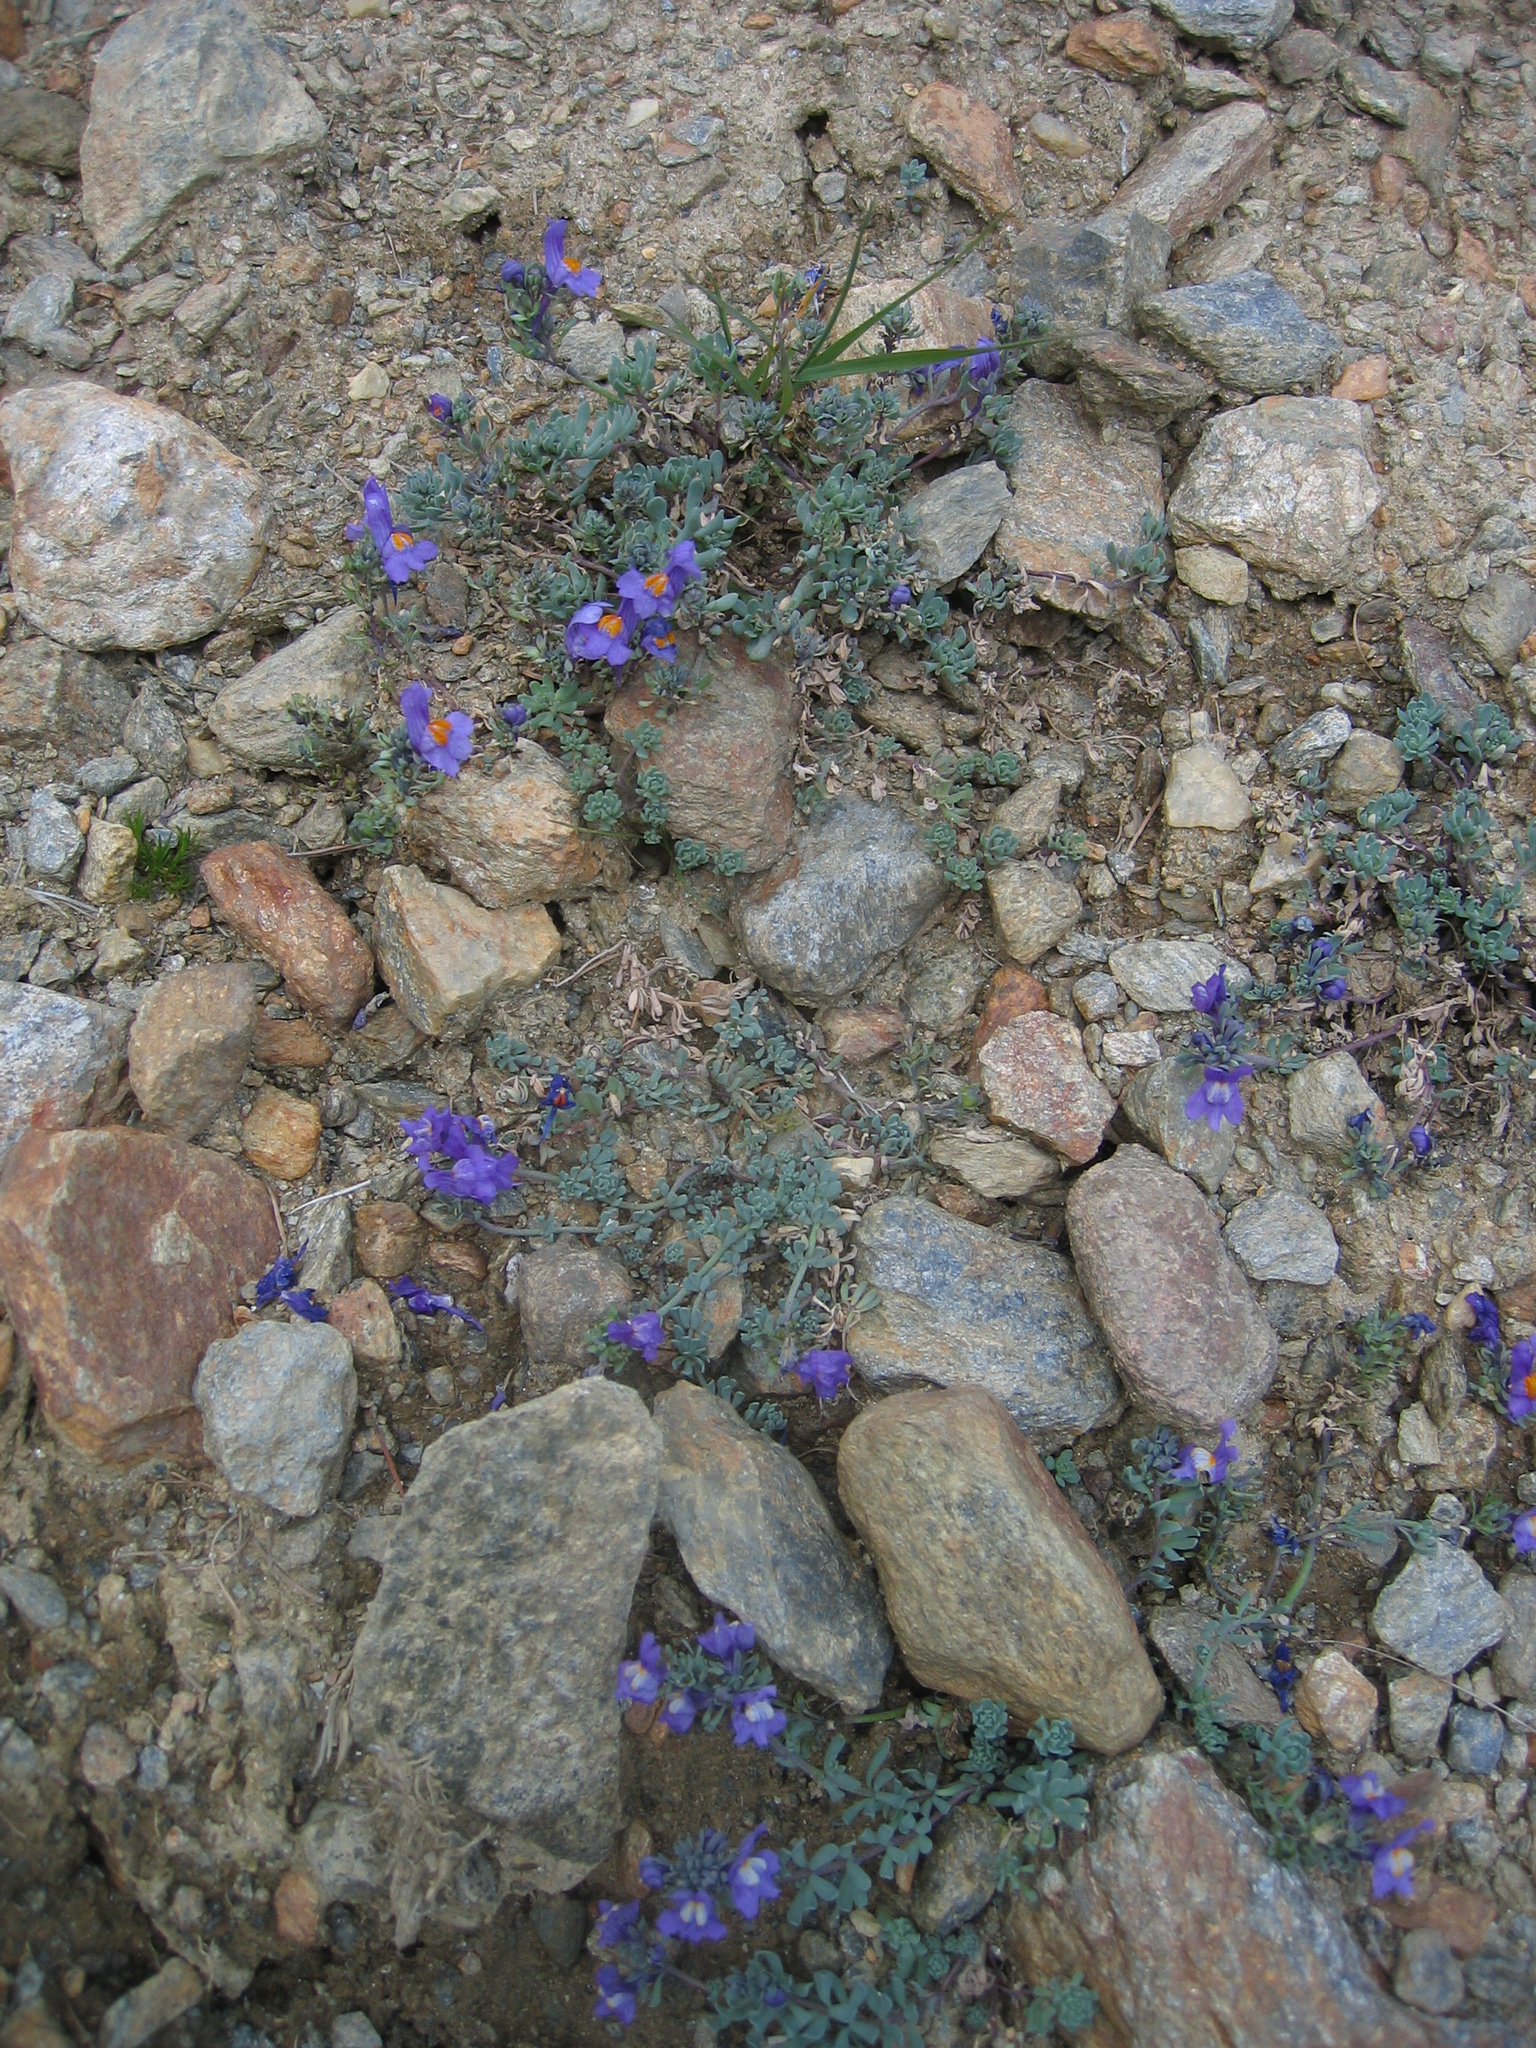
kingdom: Plantae
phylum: Tracheophyta
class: Magnoliopsida
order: Lamiales
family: Plantaginaceae
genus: Linaria
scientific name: Linaria alpina
